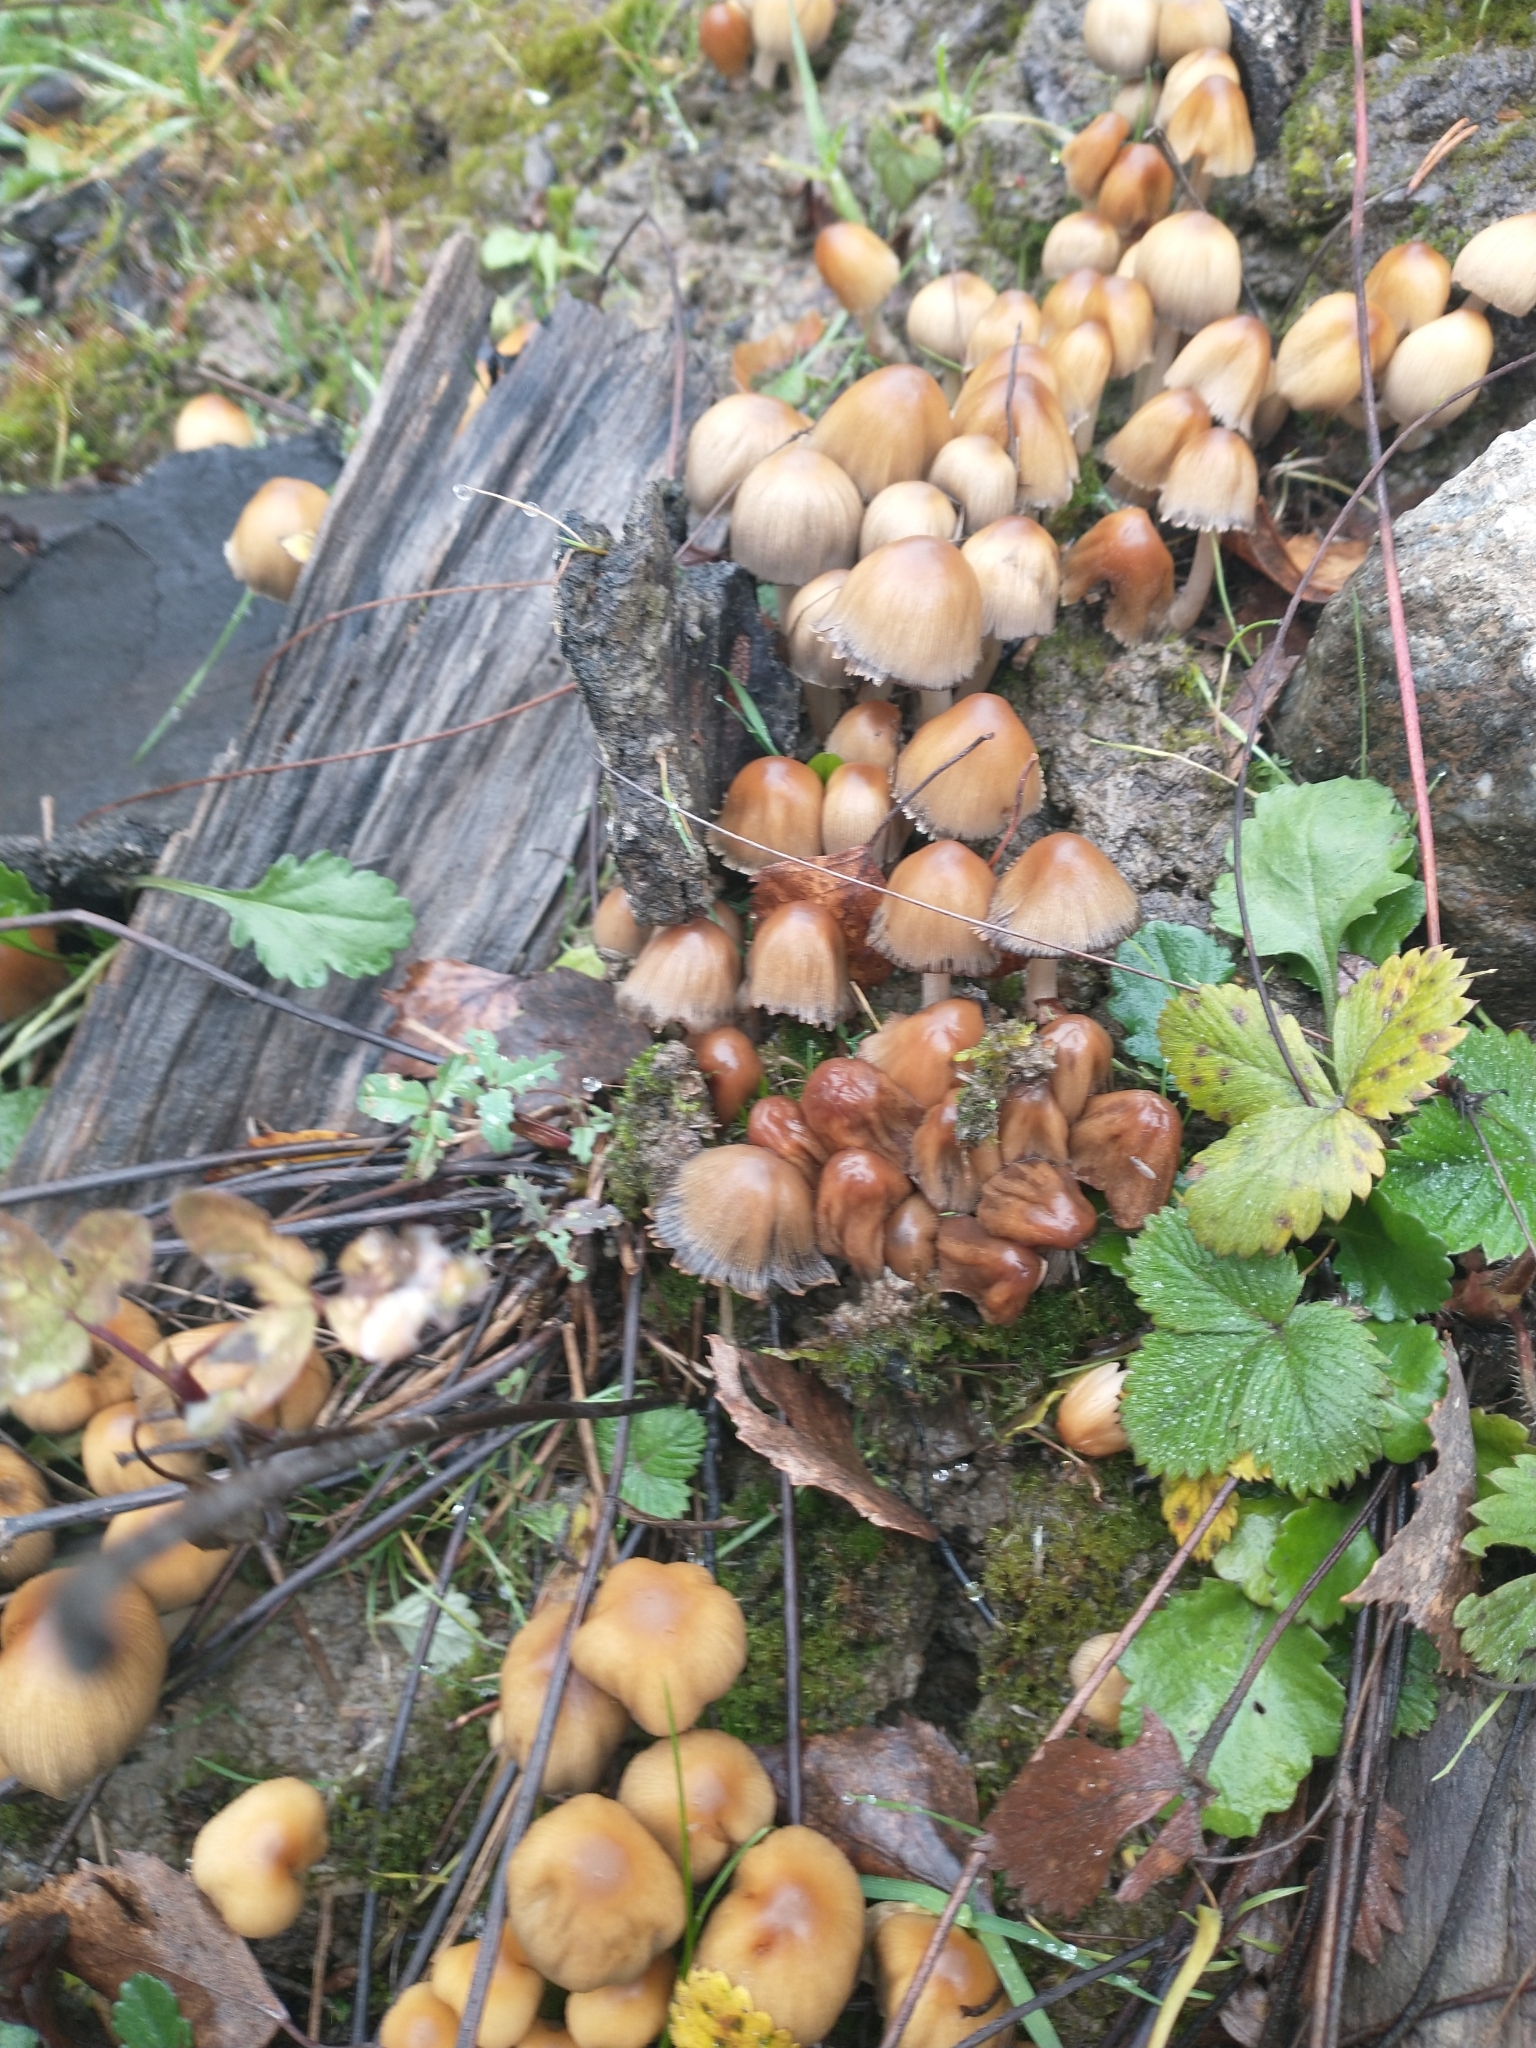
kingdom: Fungi
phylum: Basidiomycota
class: Agaricomycetes
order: Agaricales
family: Psathyrellaceae
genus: Coprinellus
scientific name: Coprinellus micaceus
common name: Glistening ink-cap
